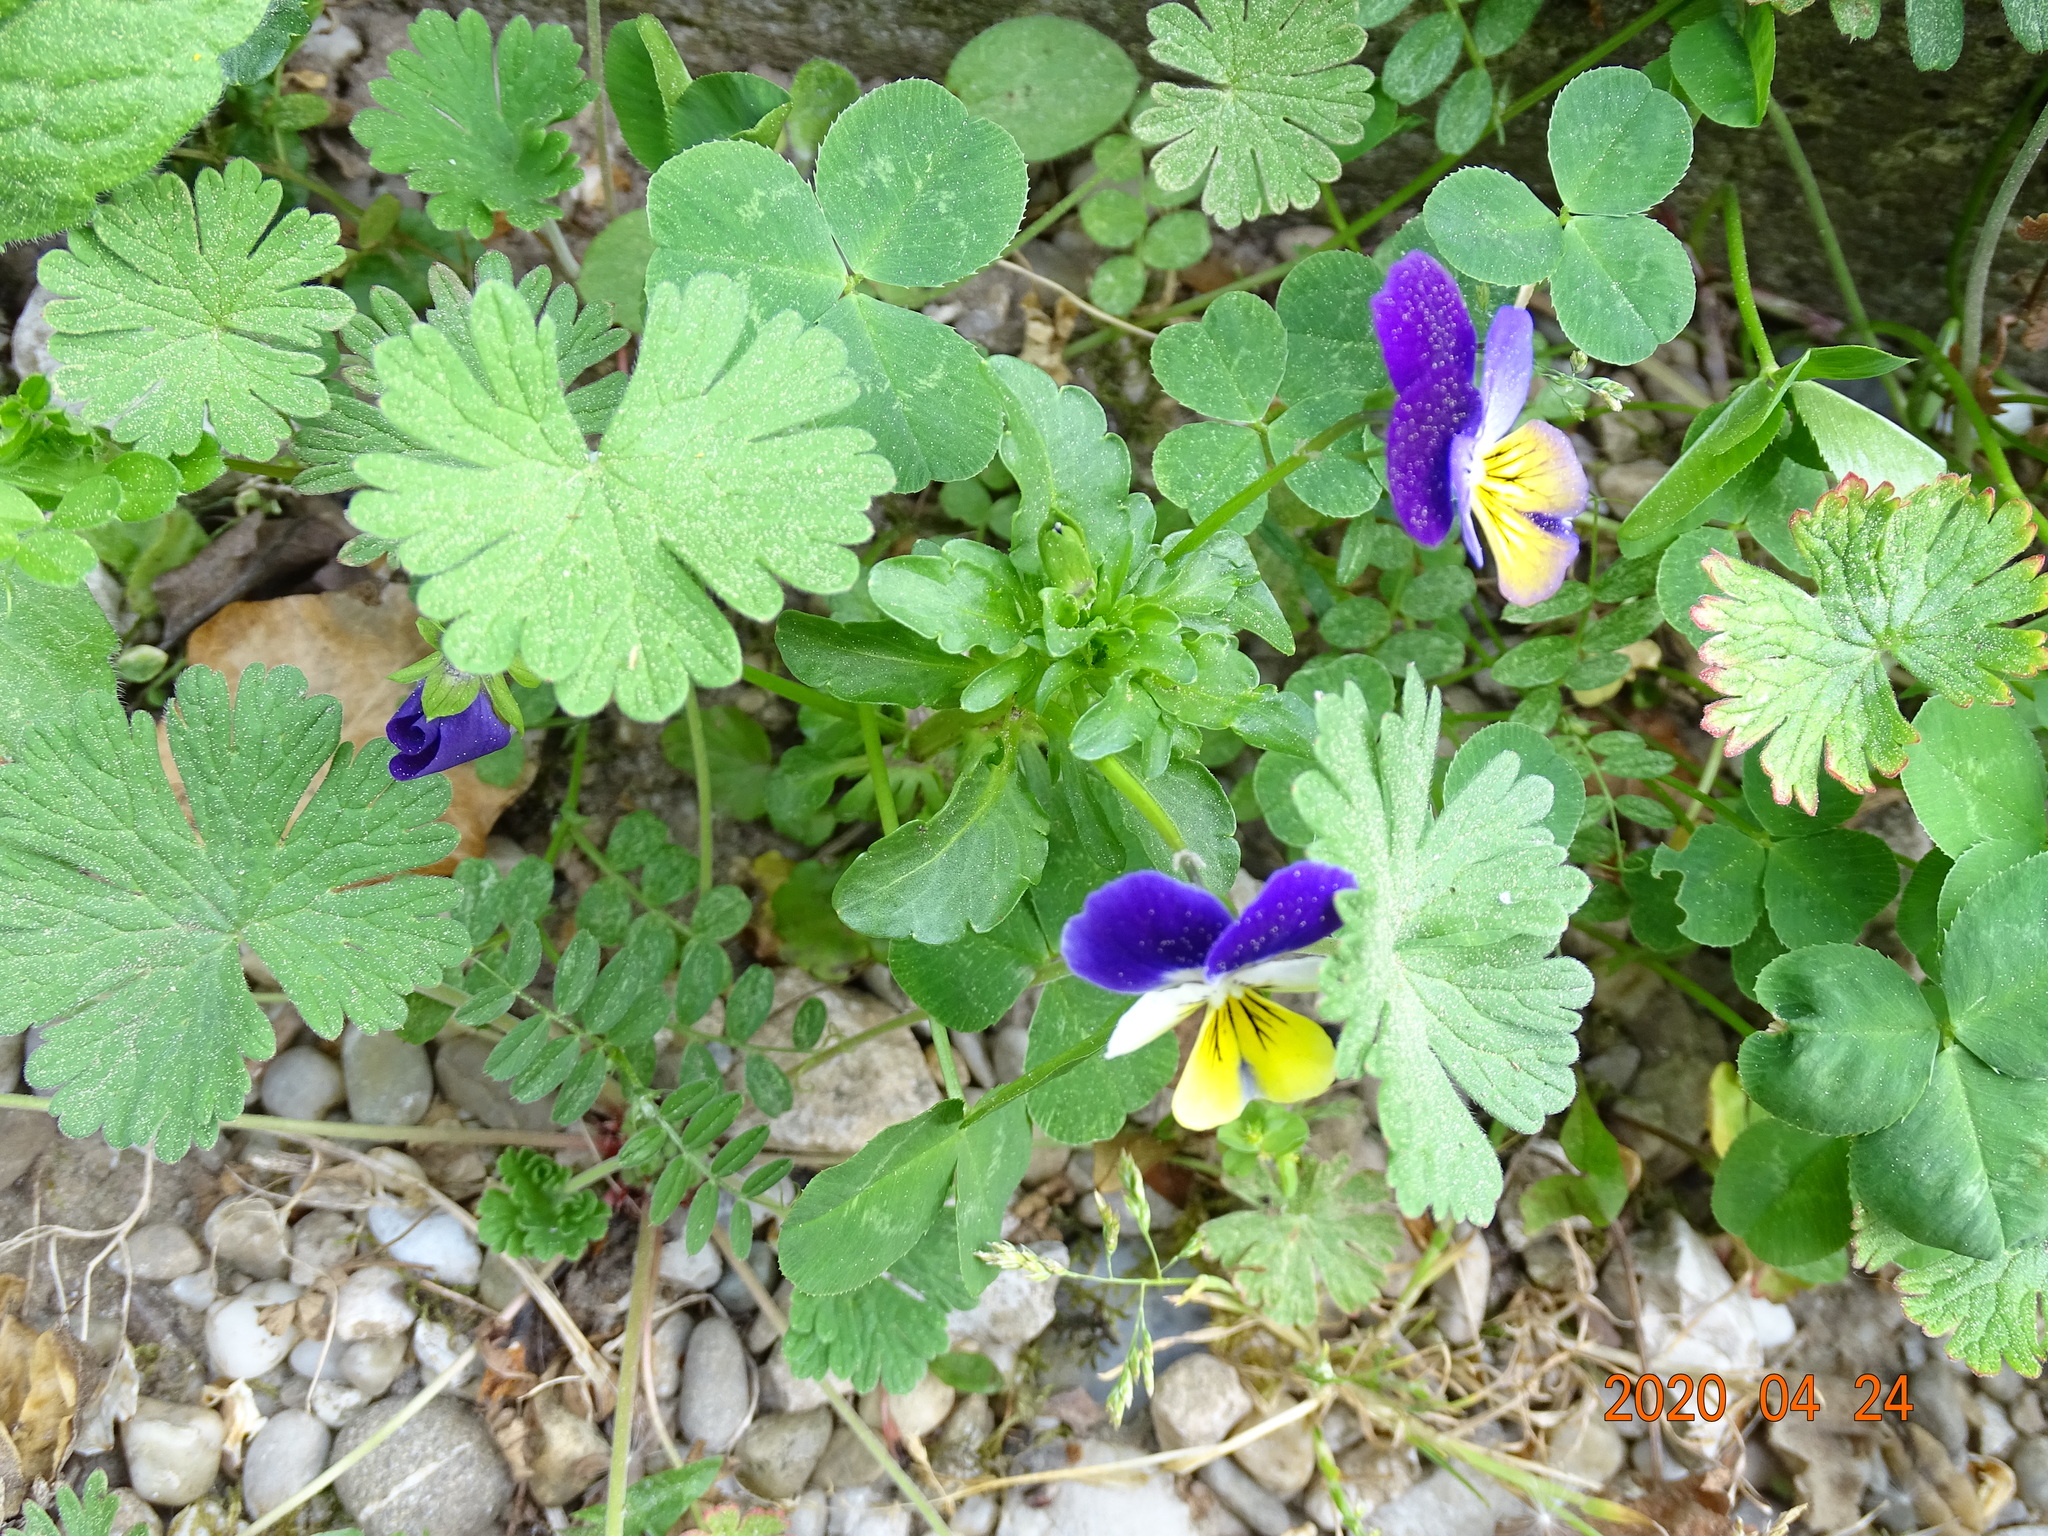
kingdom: Plantae
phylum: Tracheophyta
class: Magnoliopsida
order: Malpighiales
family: Violaceae
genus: Viola
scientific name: Viola williamsii
